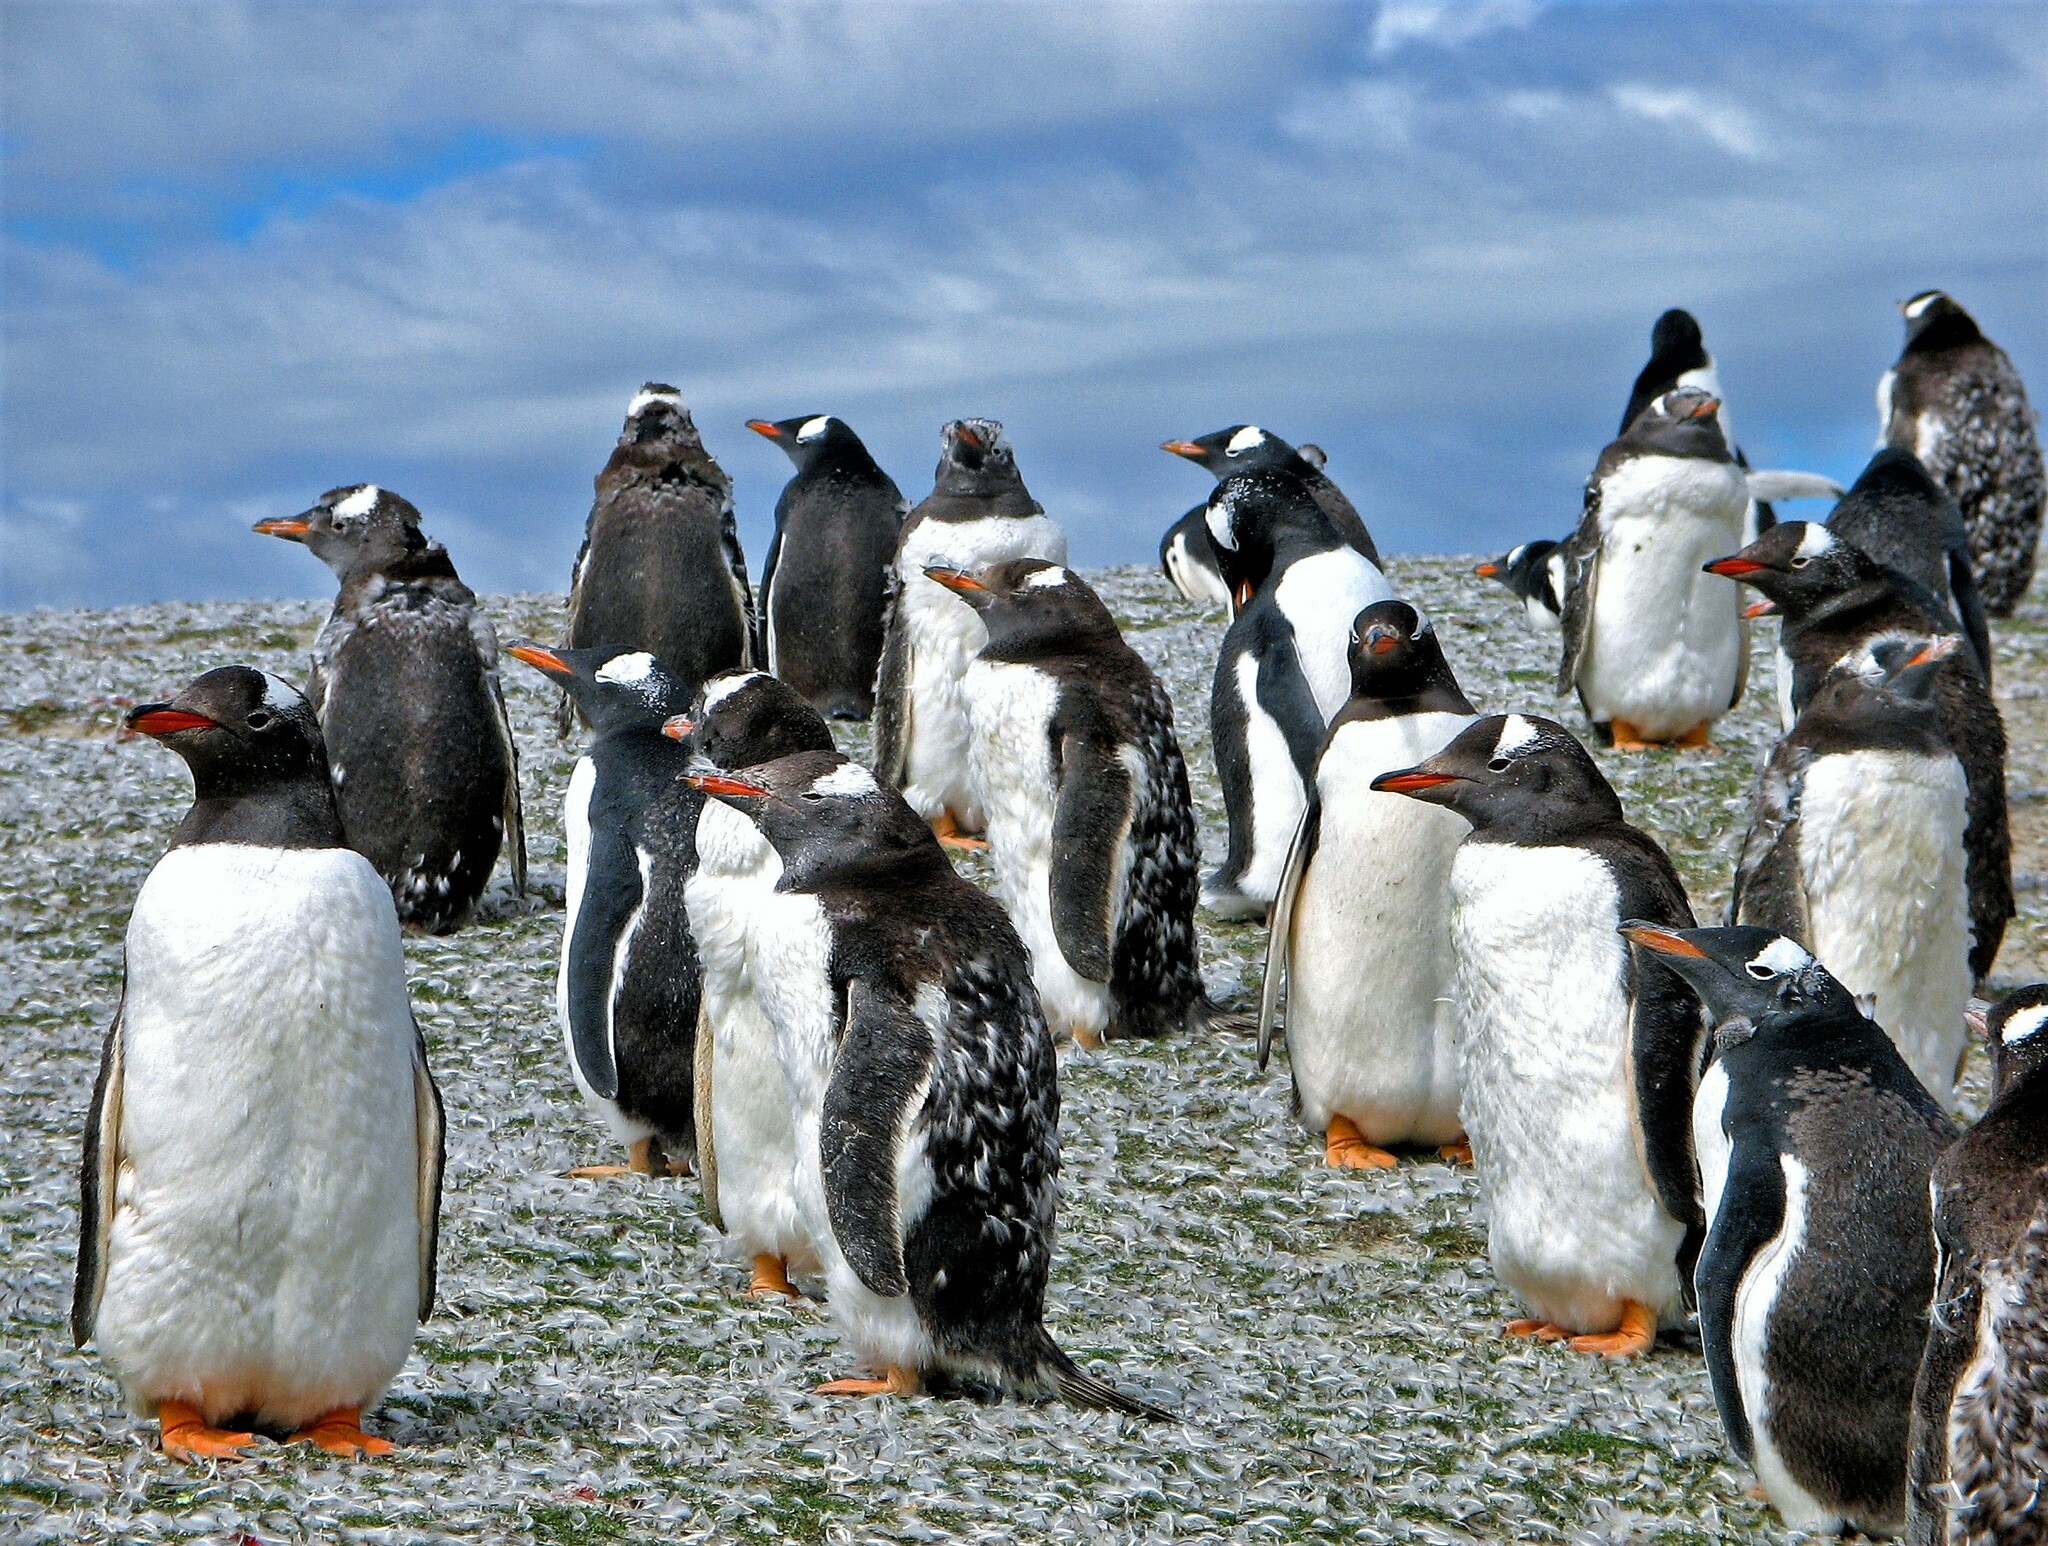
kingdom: Animalia
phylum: Chordata
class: Aves
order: Sphenisciformes
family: Spheniscidae
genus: Pygoscelis
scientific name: Pygoscelis papua
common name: Gentoo penguin
